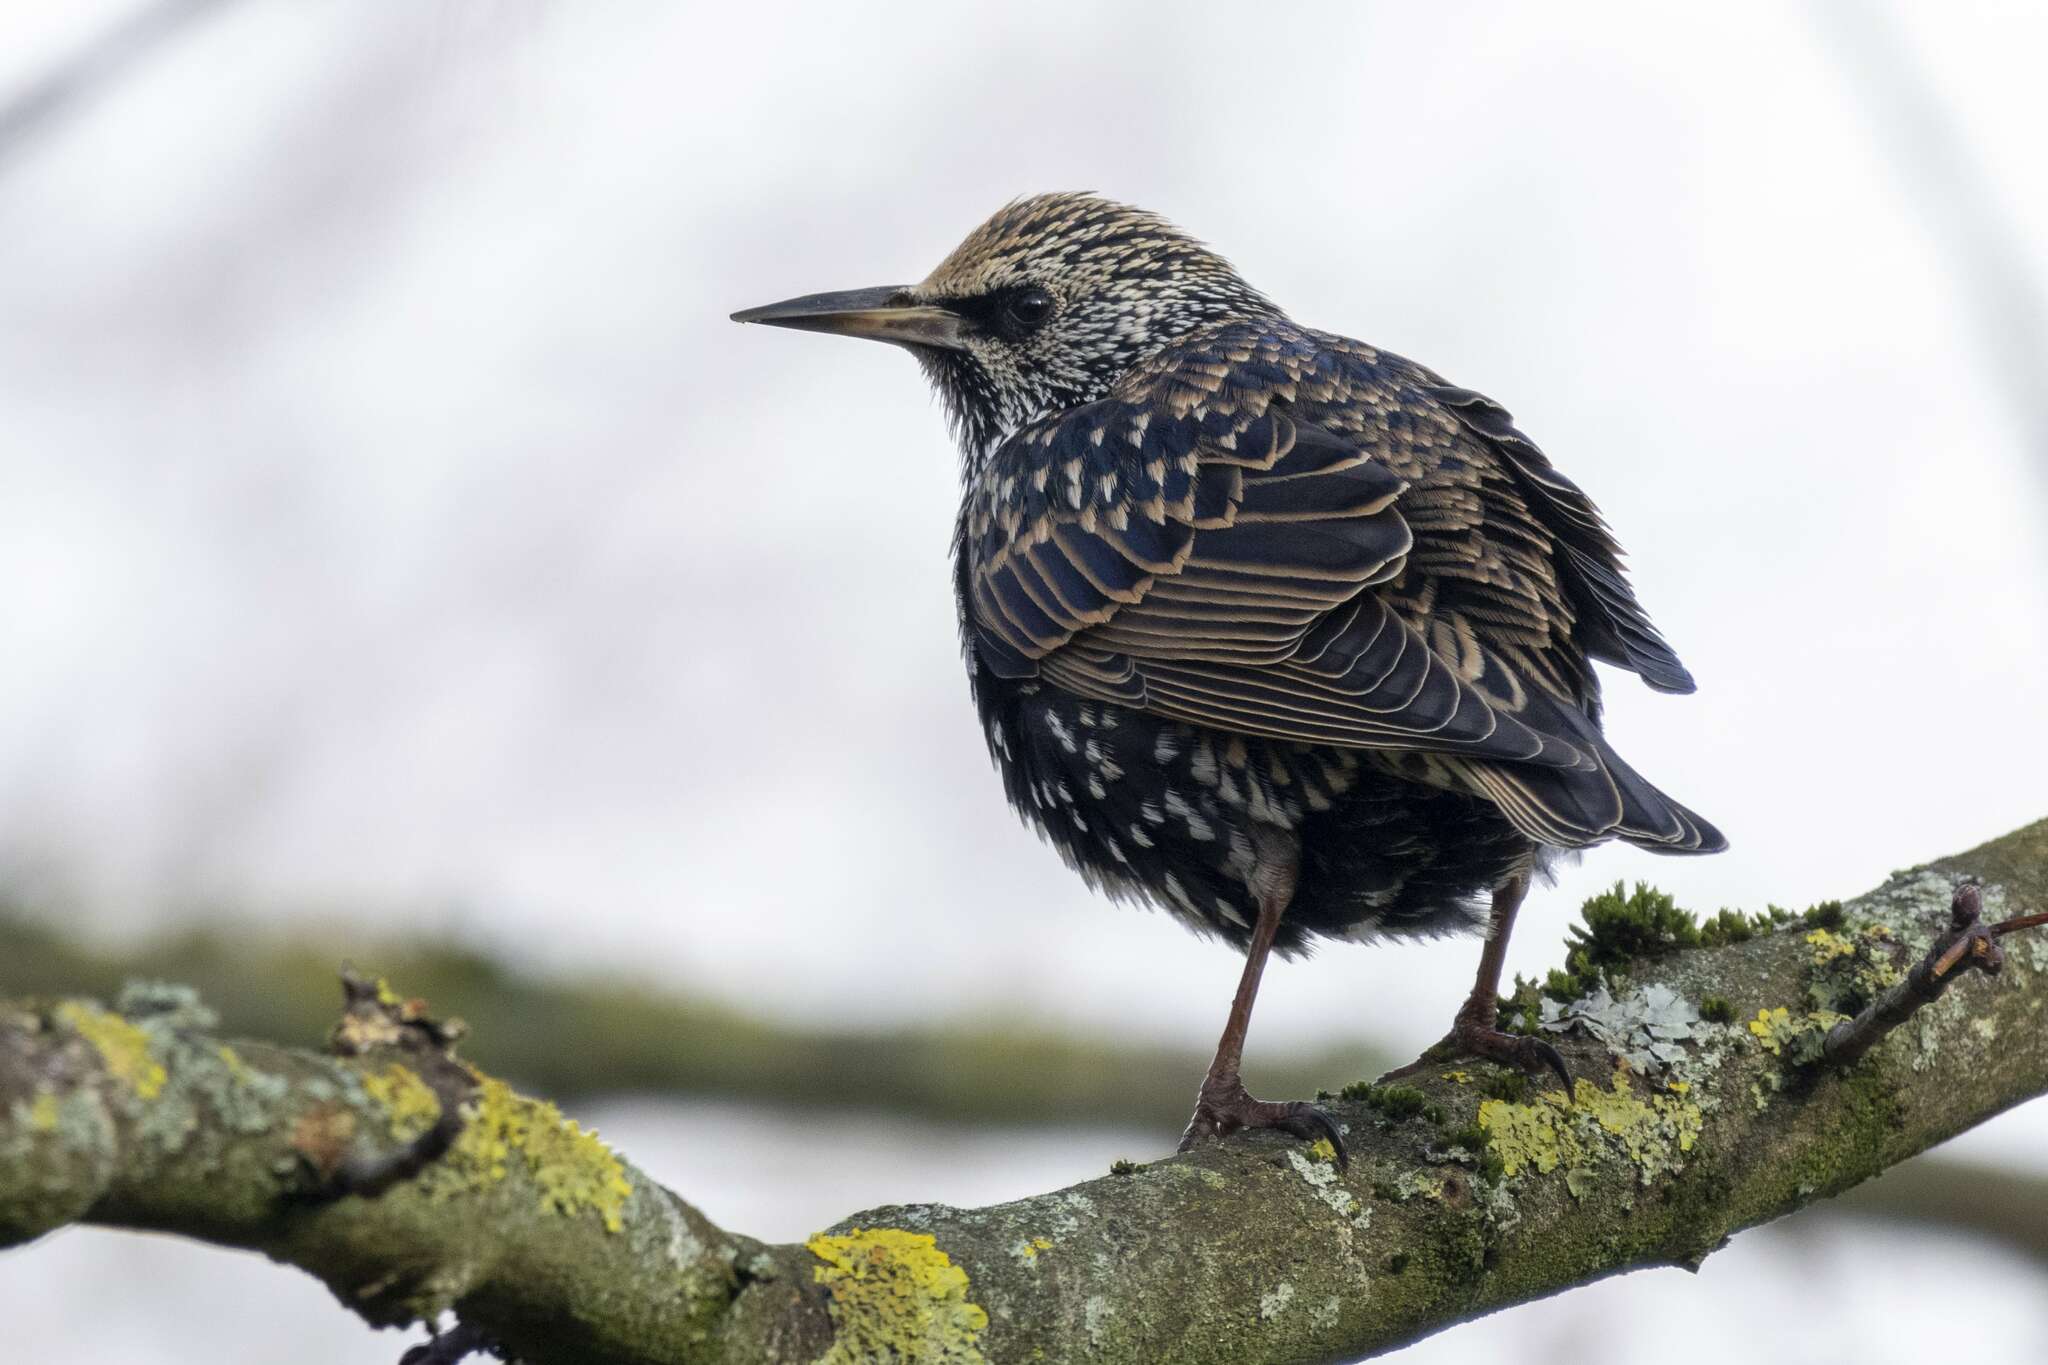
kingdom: Animalia
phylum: Chordata
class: Aves
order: Passeriformes
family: Sturnidae
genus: Sturnus
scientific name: Sturnus vulgaris
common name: Common starling
